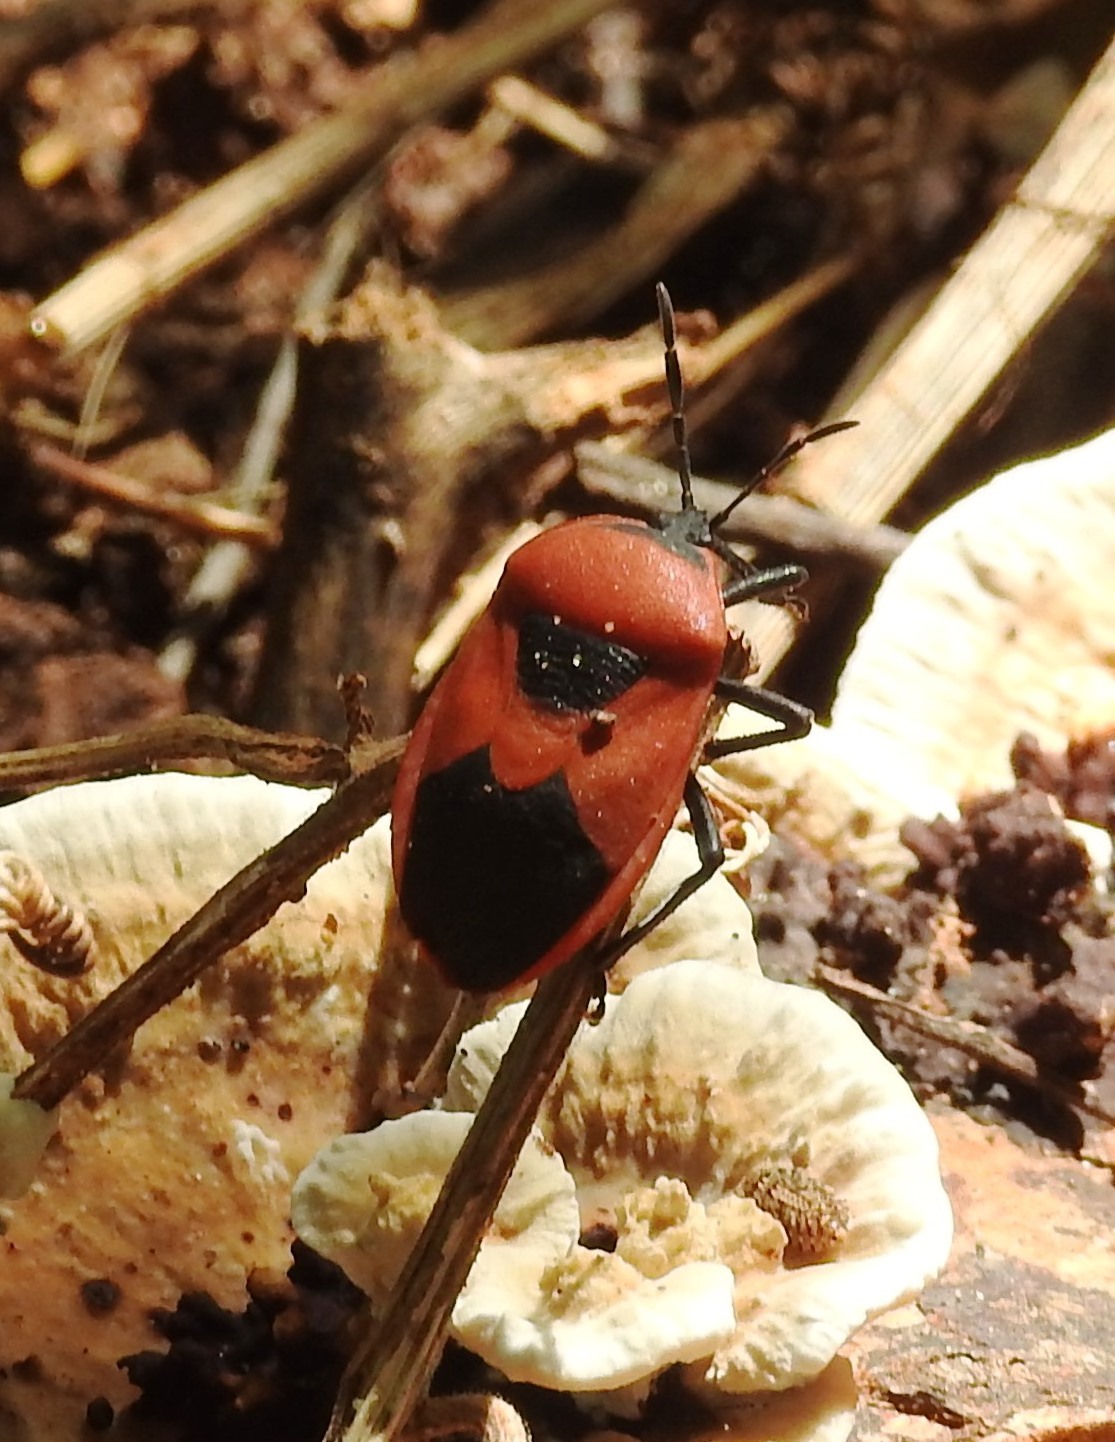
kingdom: Animalia
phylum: Arthropoda
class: Insecta
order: Hemiptera
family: Dinidoridae
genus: Coridius
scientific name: Coridius ianus
